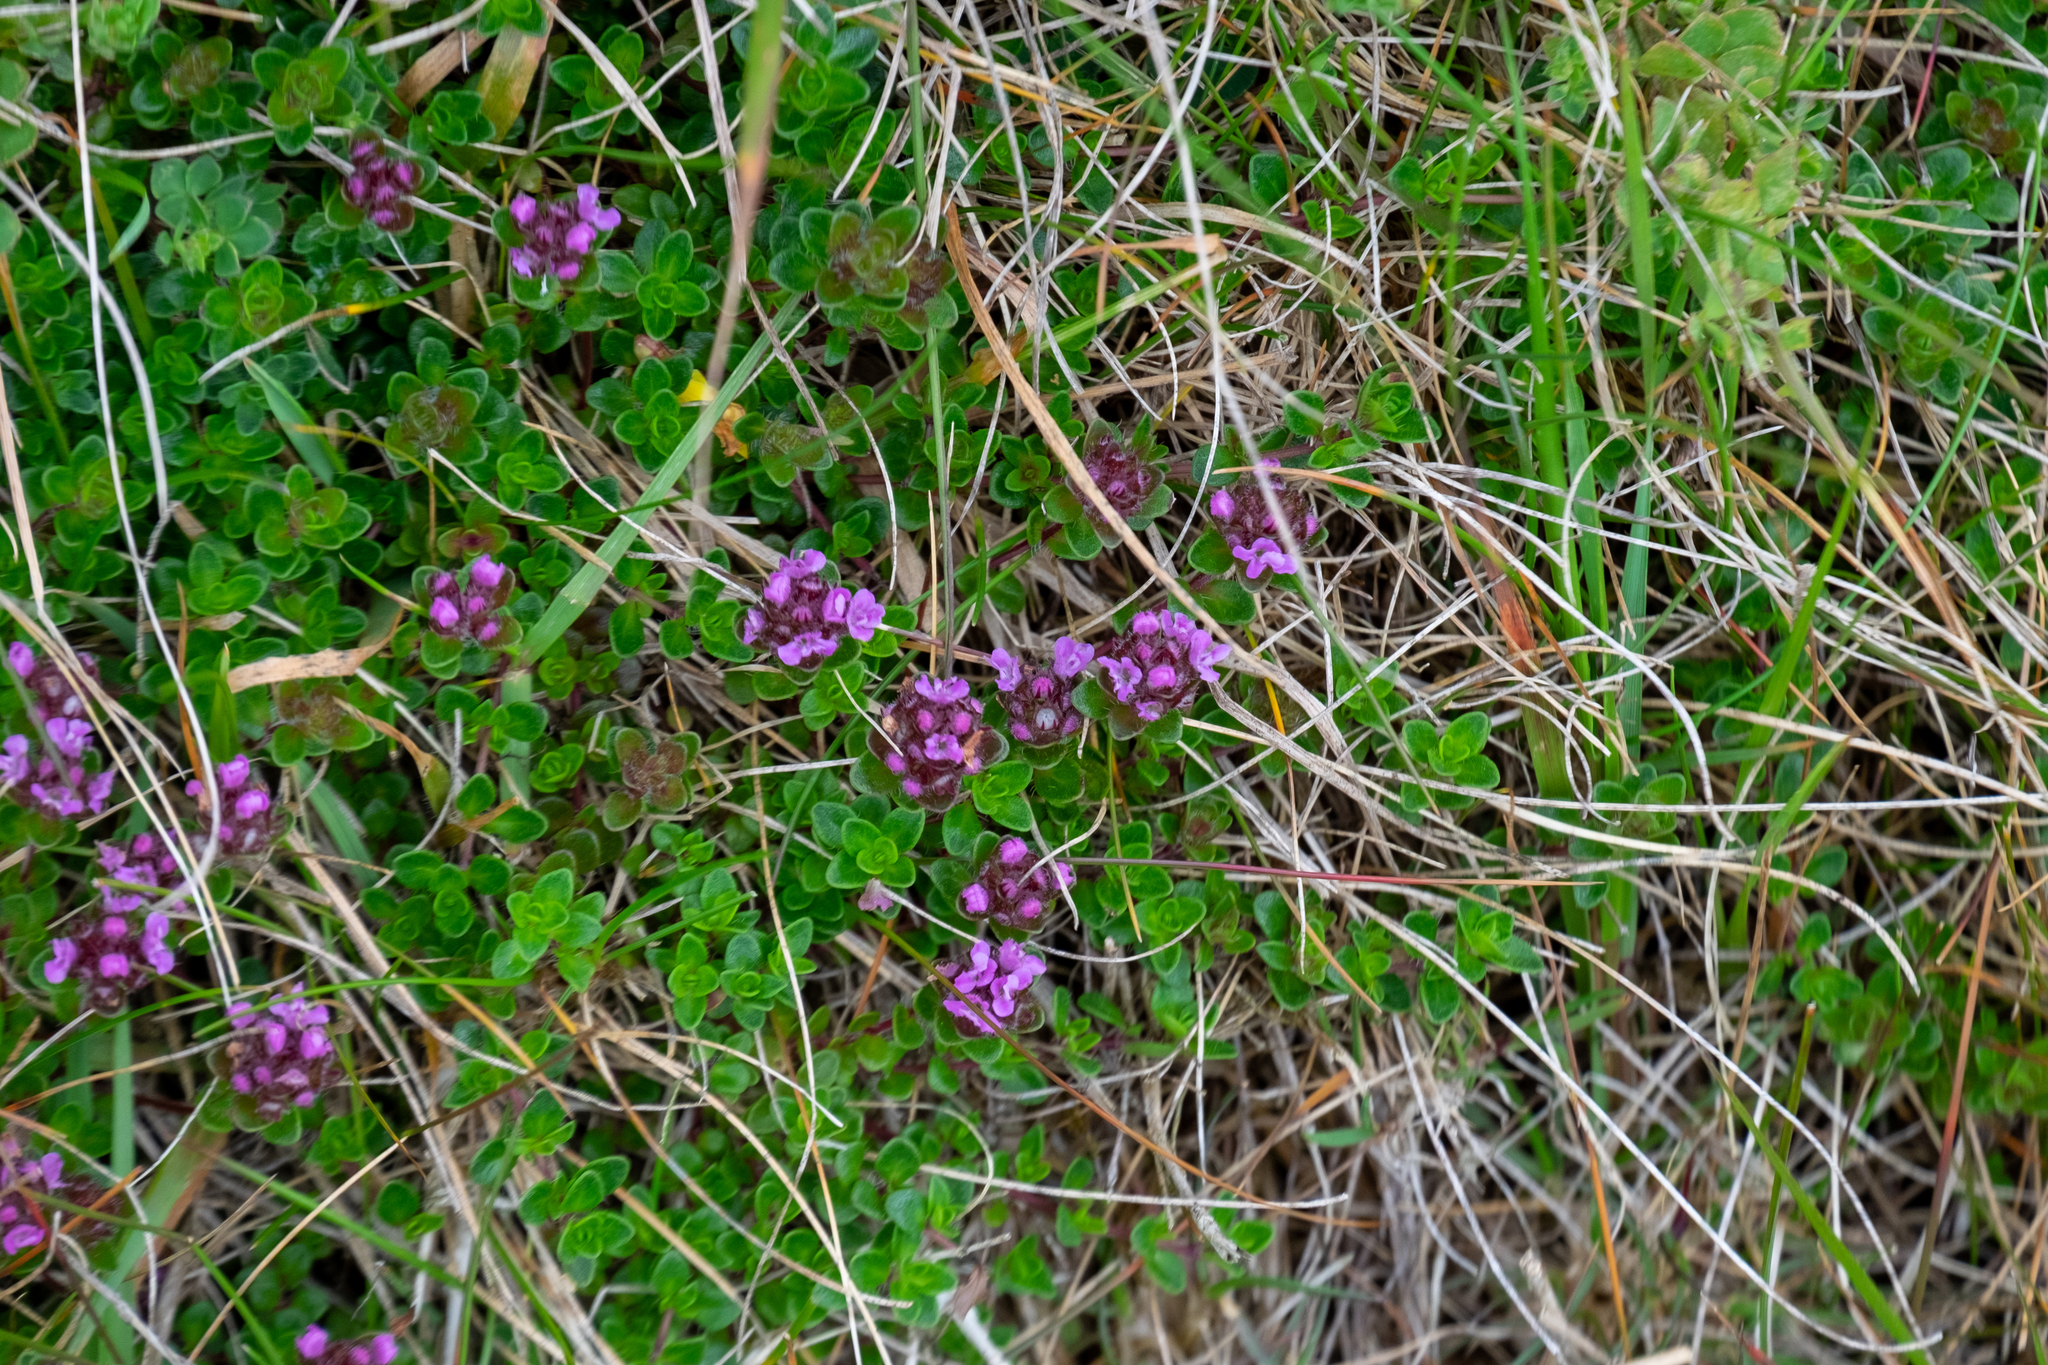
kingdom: Plantae
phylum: Tracheophyta
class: Magnoliopsida
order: Lamiales
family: Lamiaceae
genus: Thymus
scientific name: Thymus praecox
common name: Wild thyme
